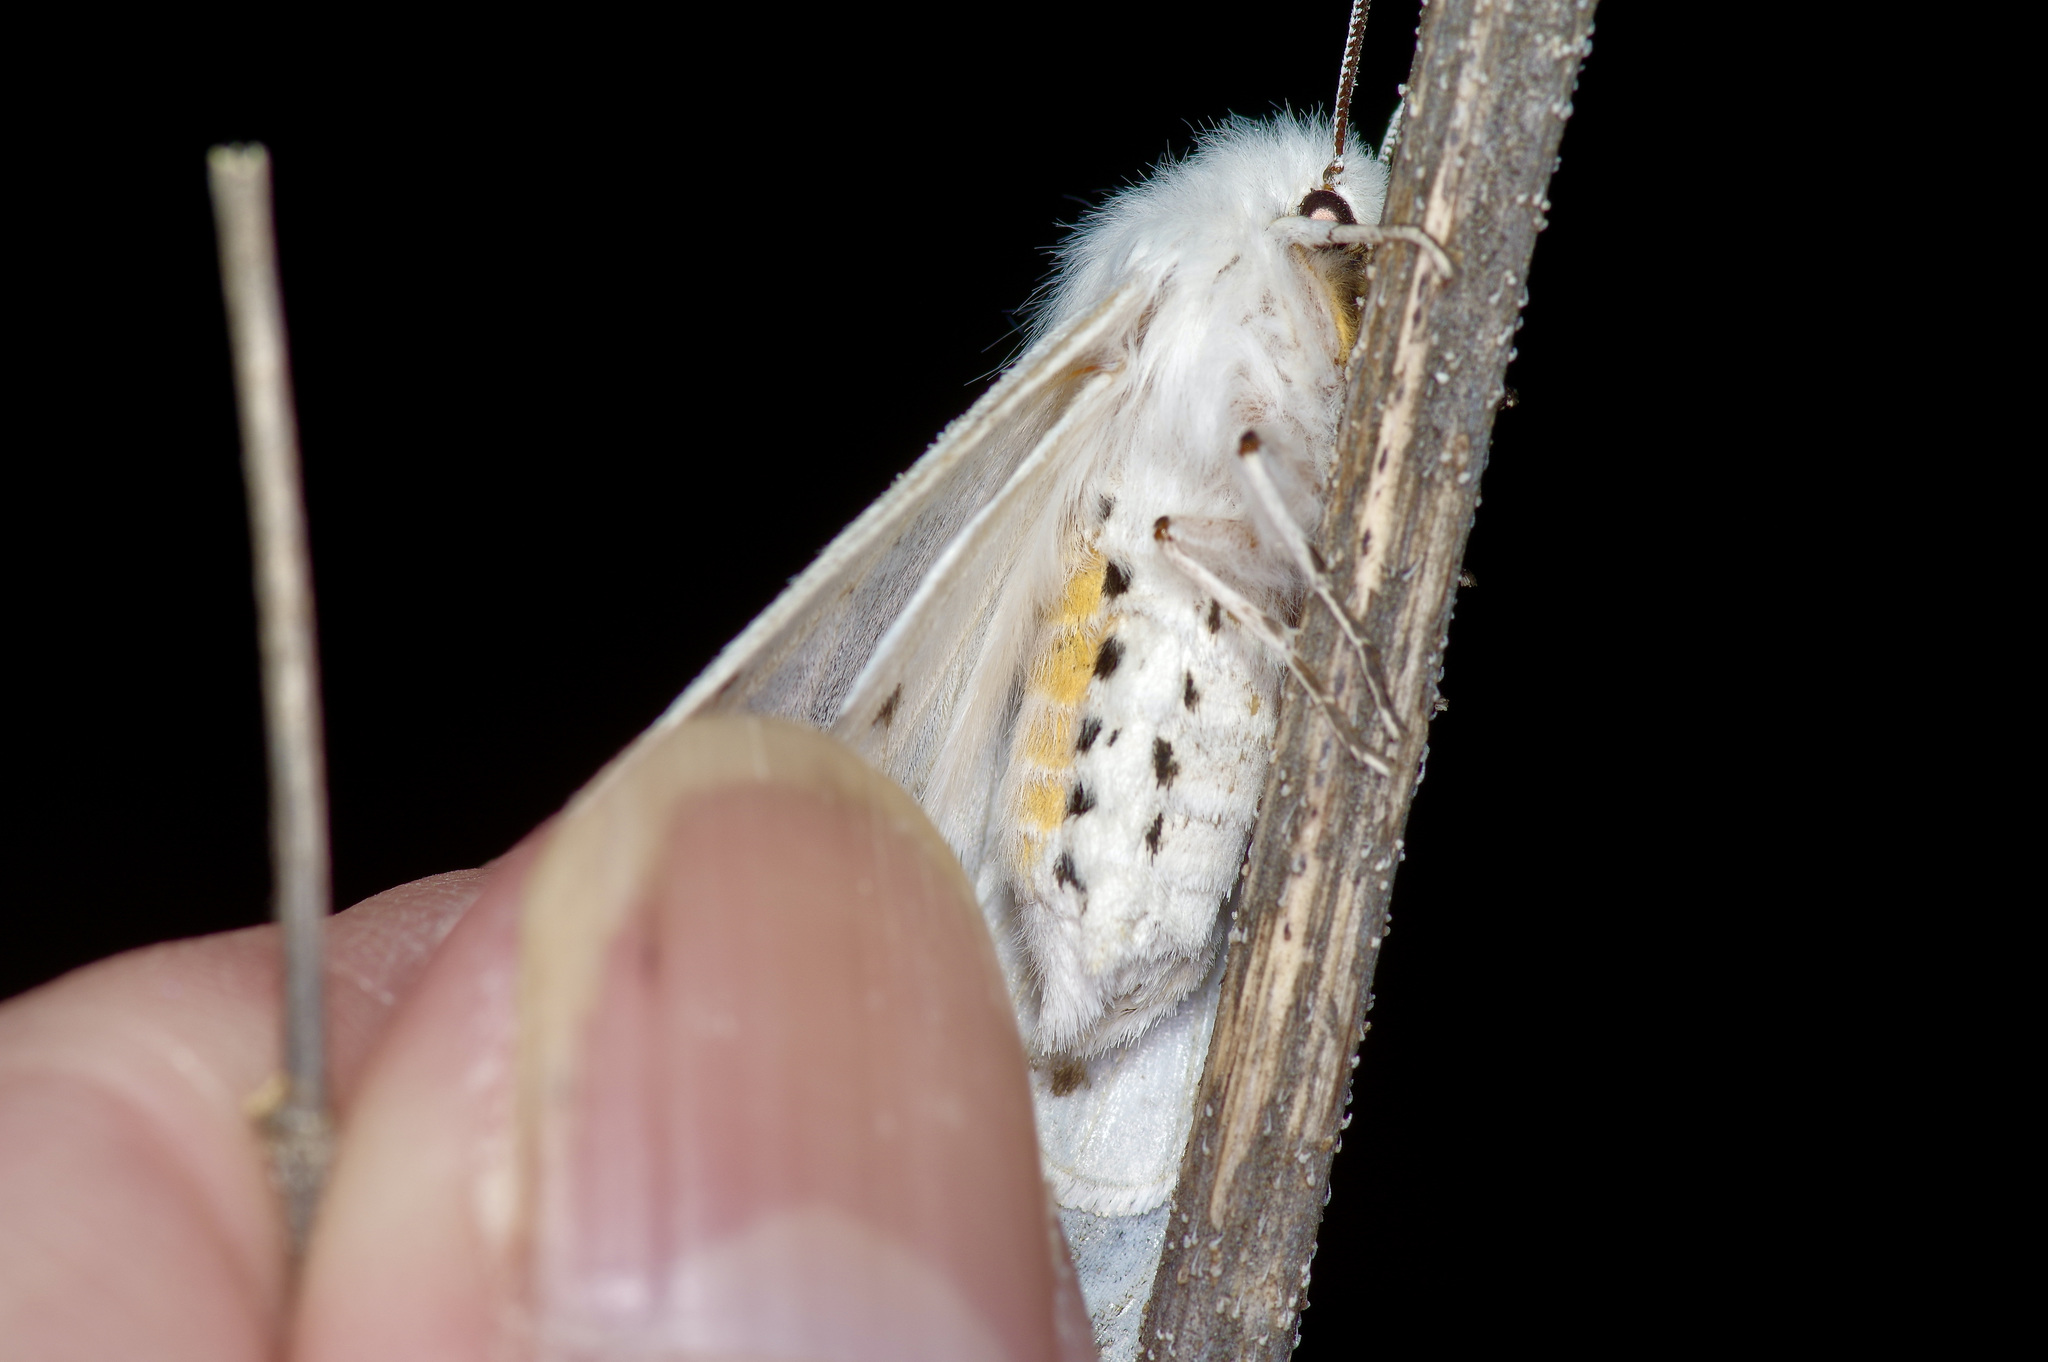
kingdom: Animalia
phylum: Arthropoda
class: Insecta
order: Lepidoptera
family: Erebidae
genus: Spilosoma
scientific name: Spilosoma dubia
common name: Dubious tiger moth
